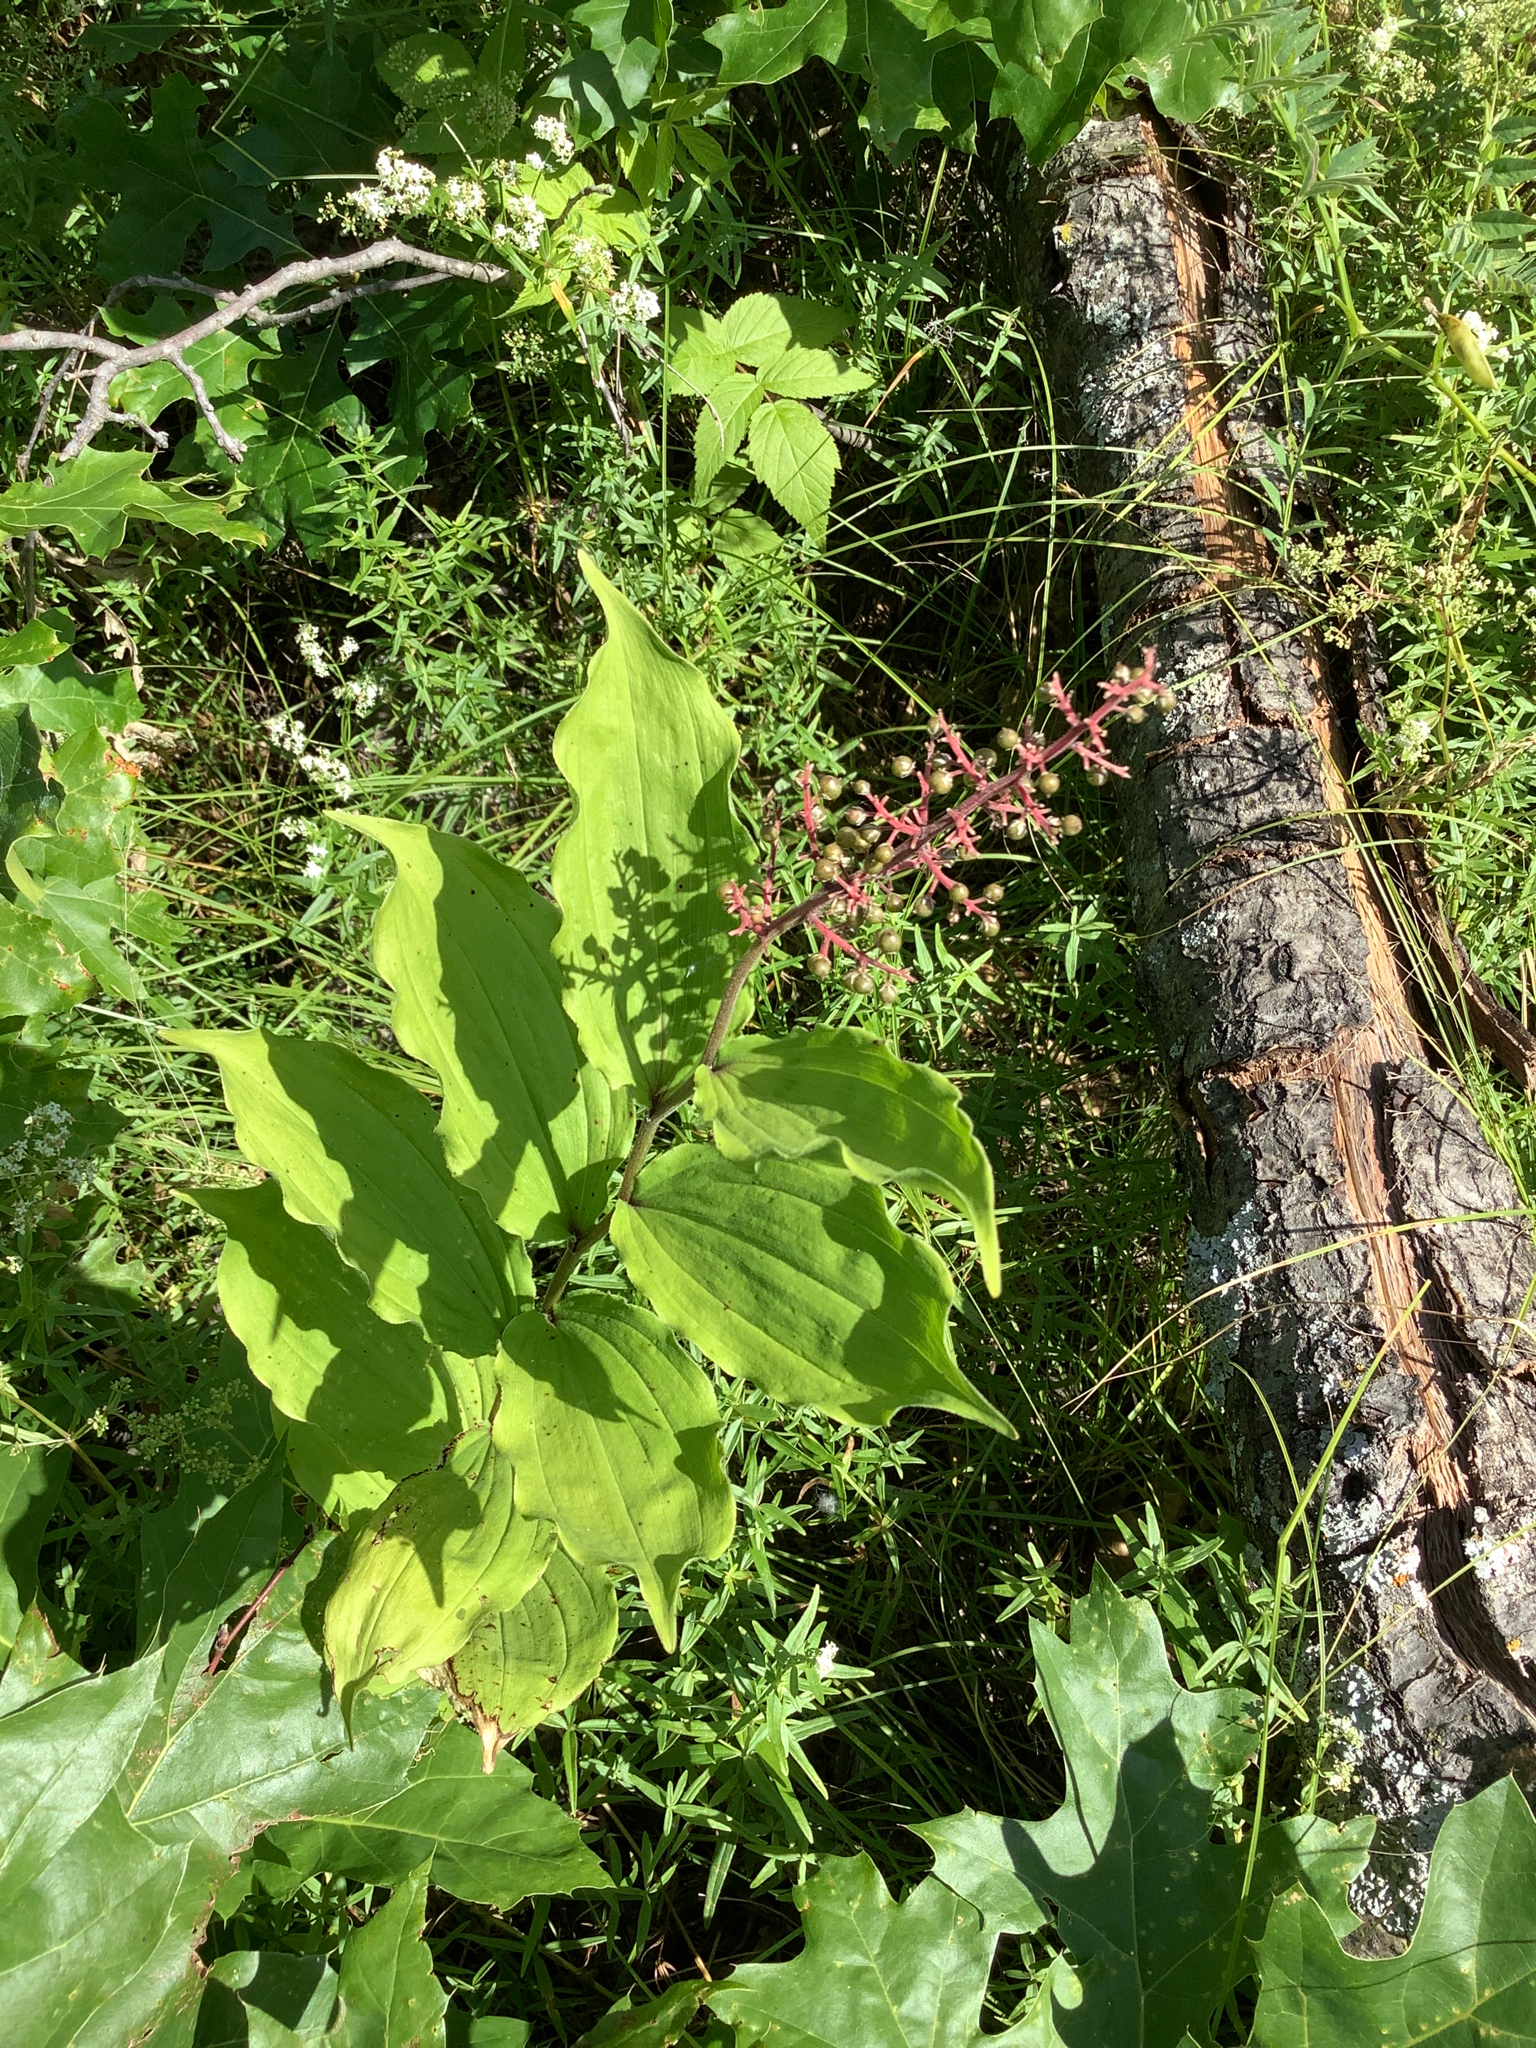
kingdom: Plantae
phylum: Tracheophyta
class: Liliopsida
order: Asparagales
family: Asparagaceae
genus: Maianthemum
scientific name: Maianthemum racemosum
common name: False spikenard
